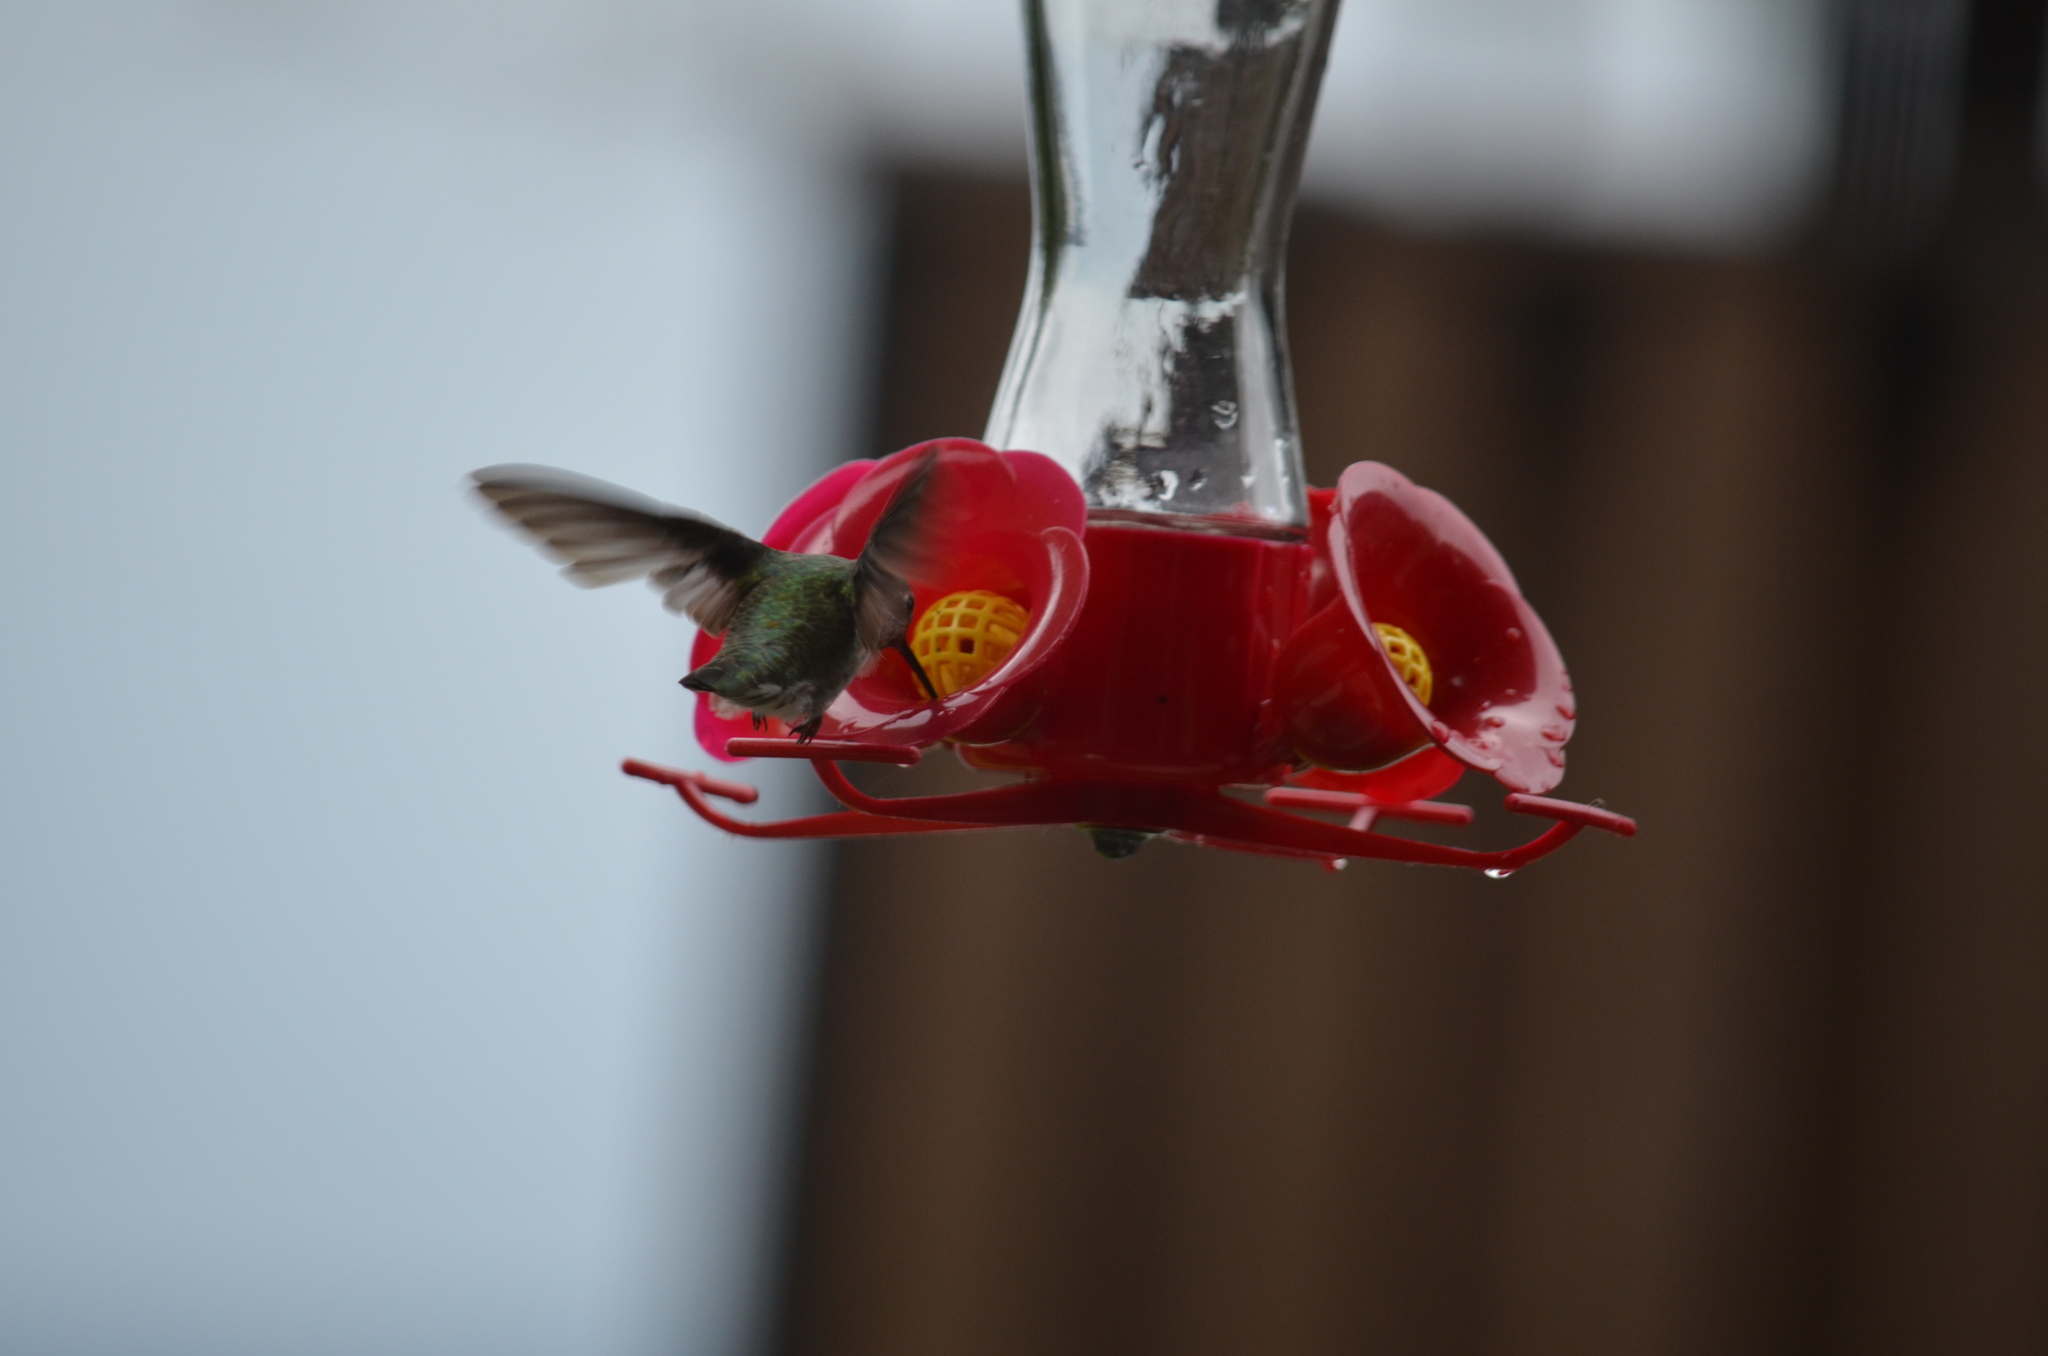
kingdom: Animalia
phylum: Chordata
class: Aves
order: Apodiformes
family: Trochilidae
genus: Calypte
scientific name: Calypte anna
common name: Anna's hummingbird
